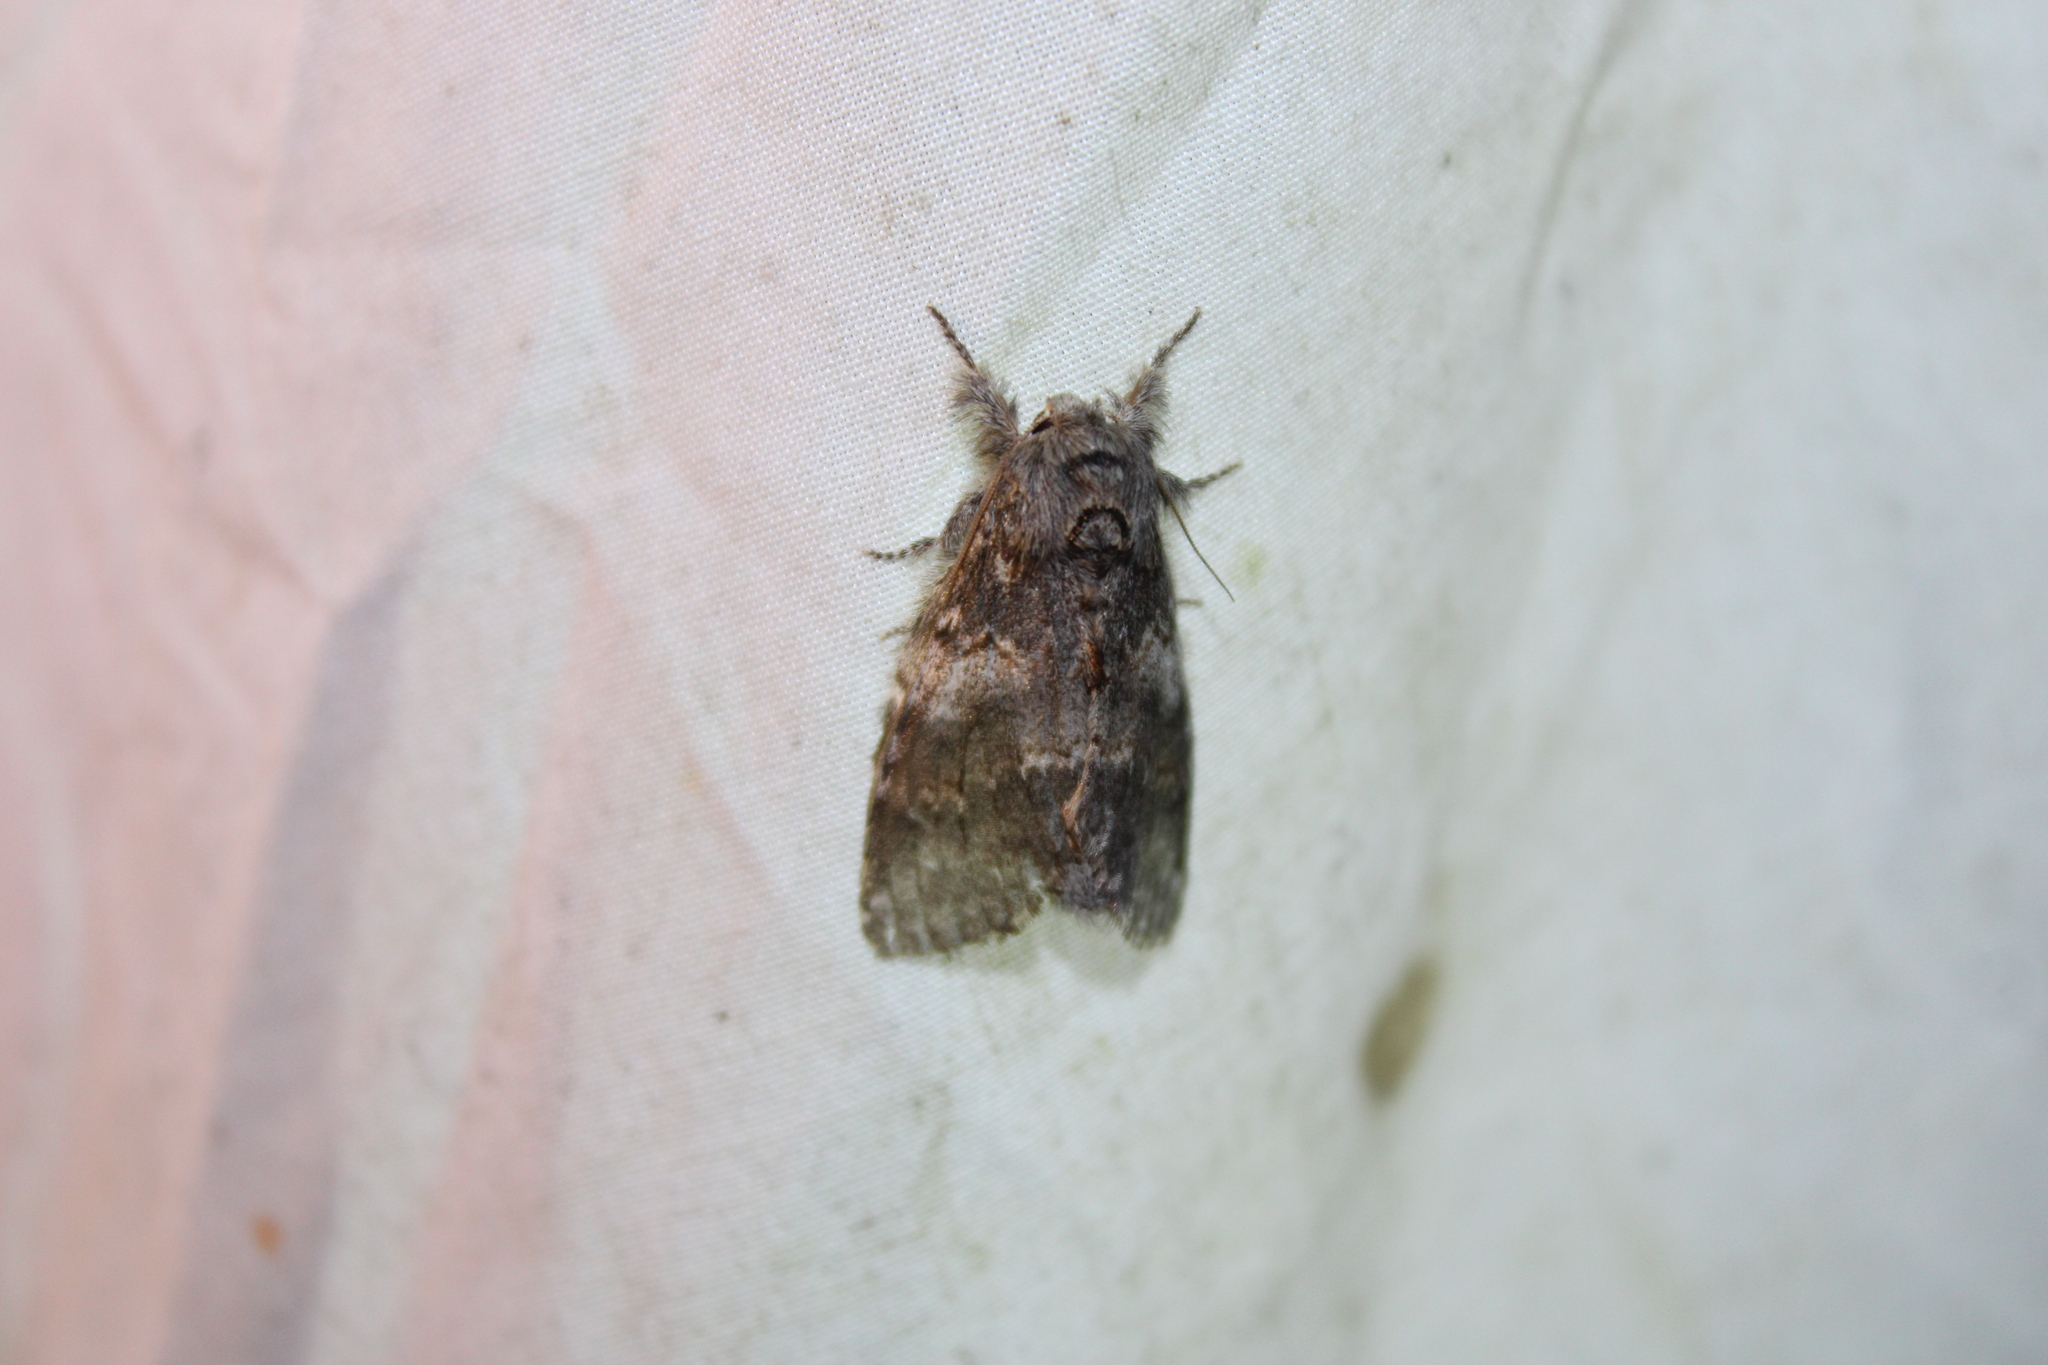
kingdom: Animalia
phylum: Arthropoda
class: Insecta
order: Lepidoptera
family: Notodontidae
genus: Peridea
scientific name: Peridea angulosa
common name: Angulose prominent
